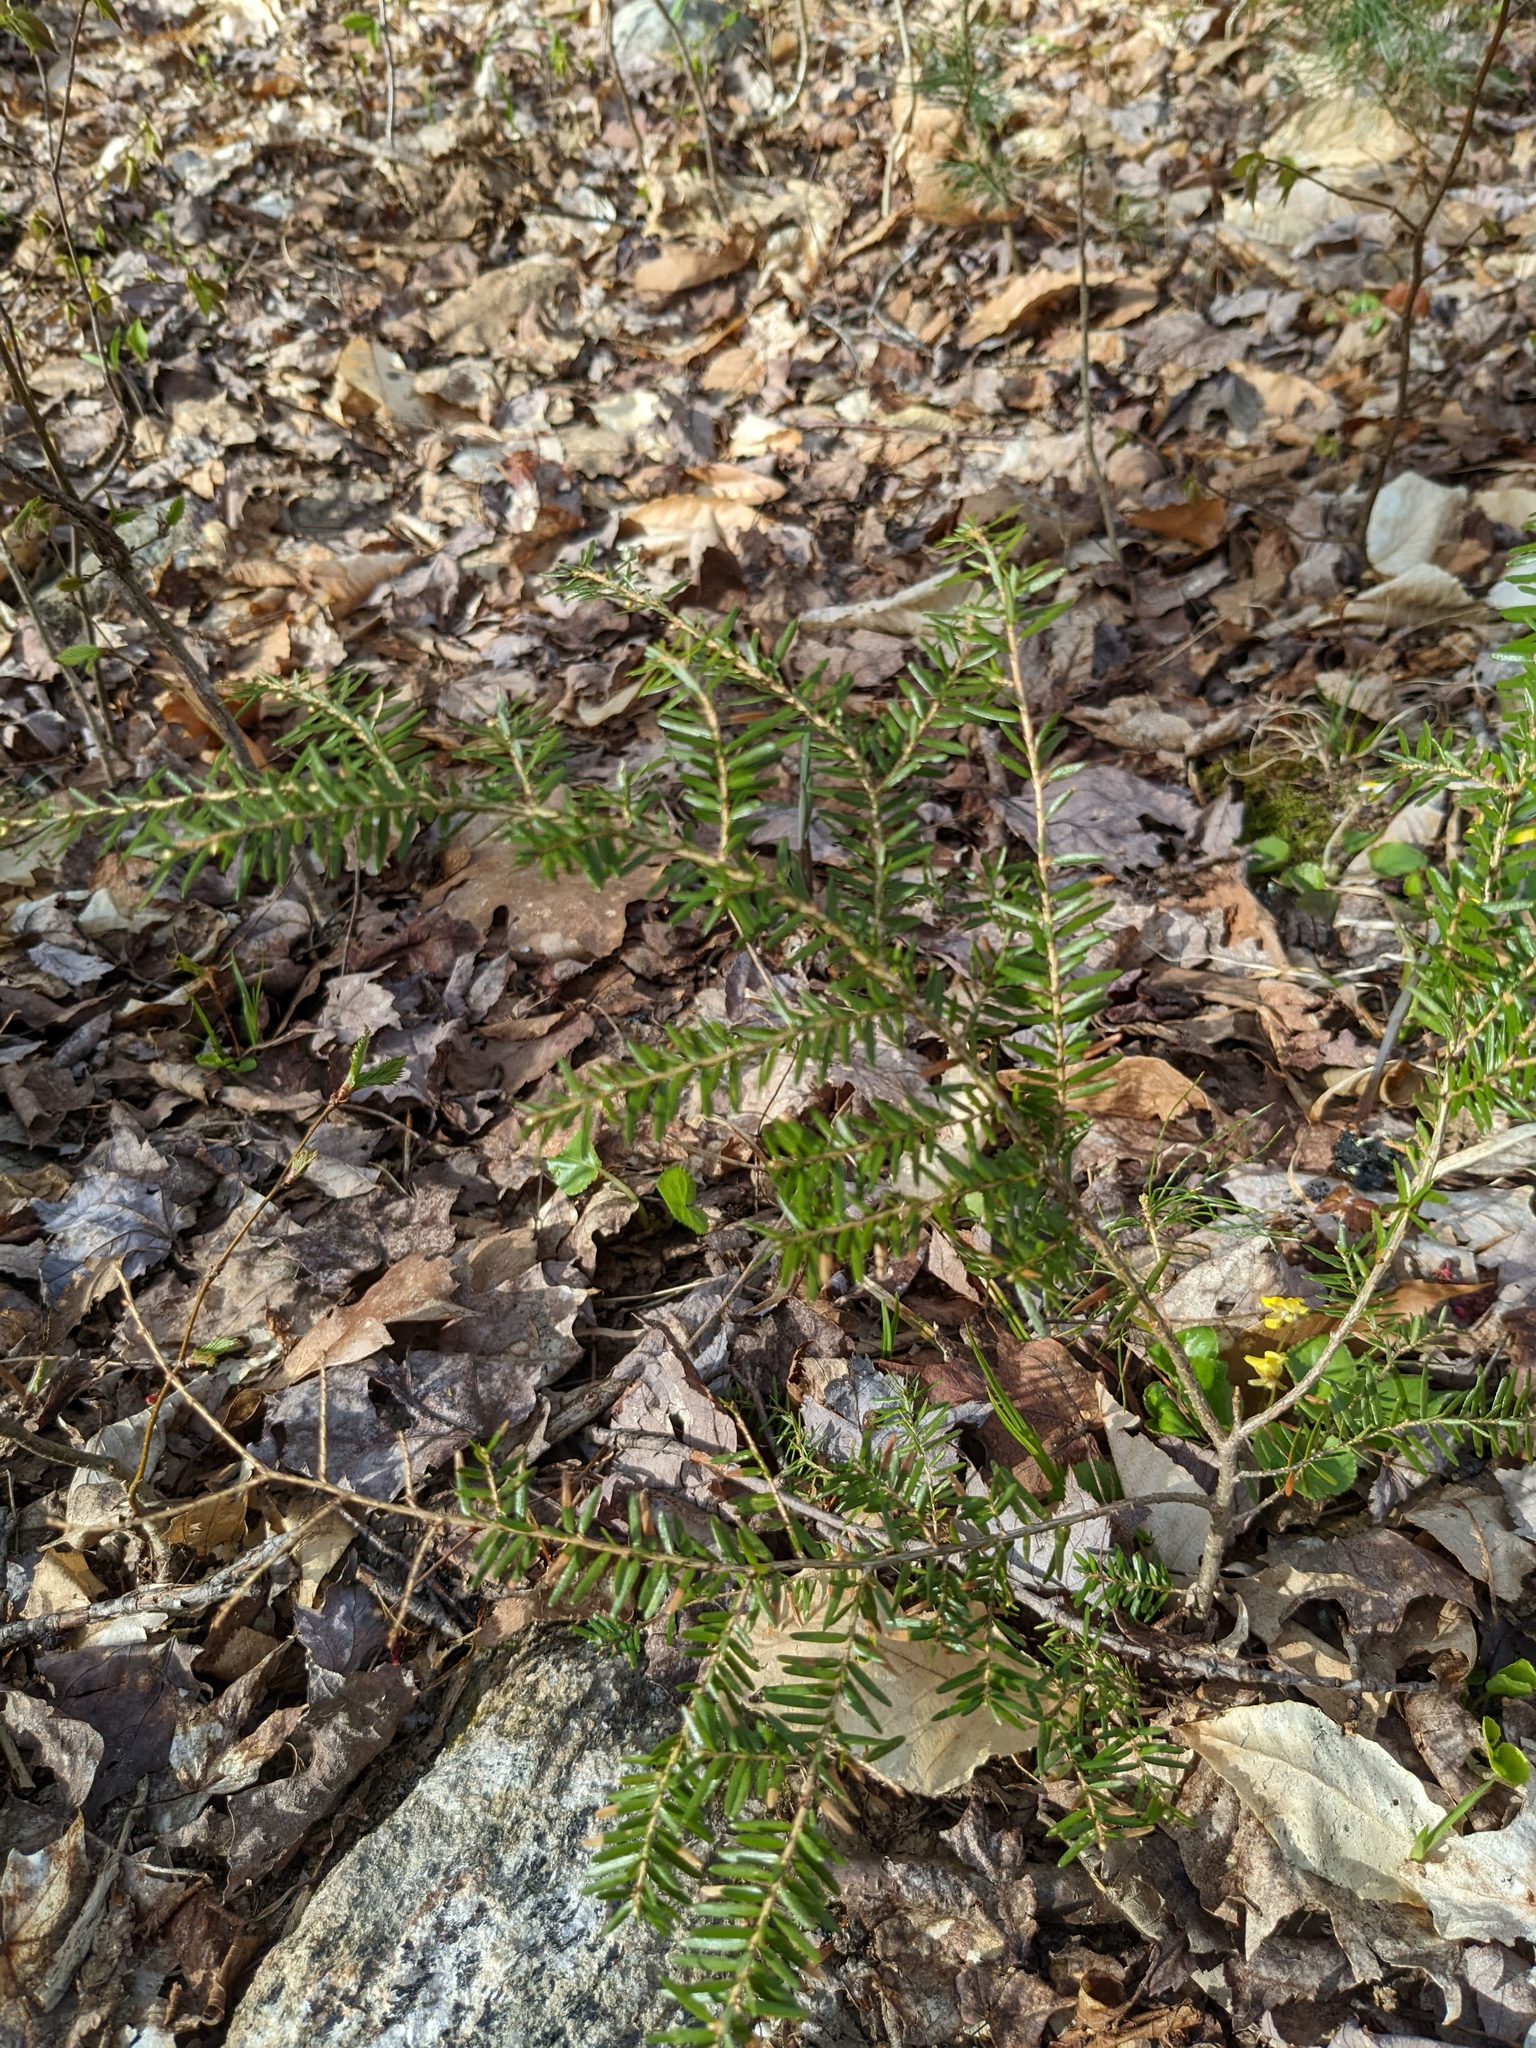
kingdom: Plantae
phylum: Tracheophyta
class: Pinopsida
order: Pinales
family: Pinaceae
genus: Tsuga
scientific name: Tsuga canadensis
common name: Eastern hemlock
